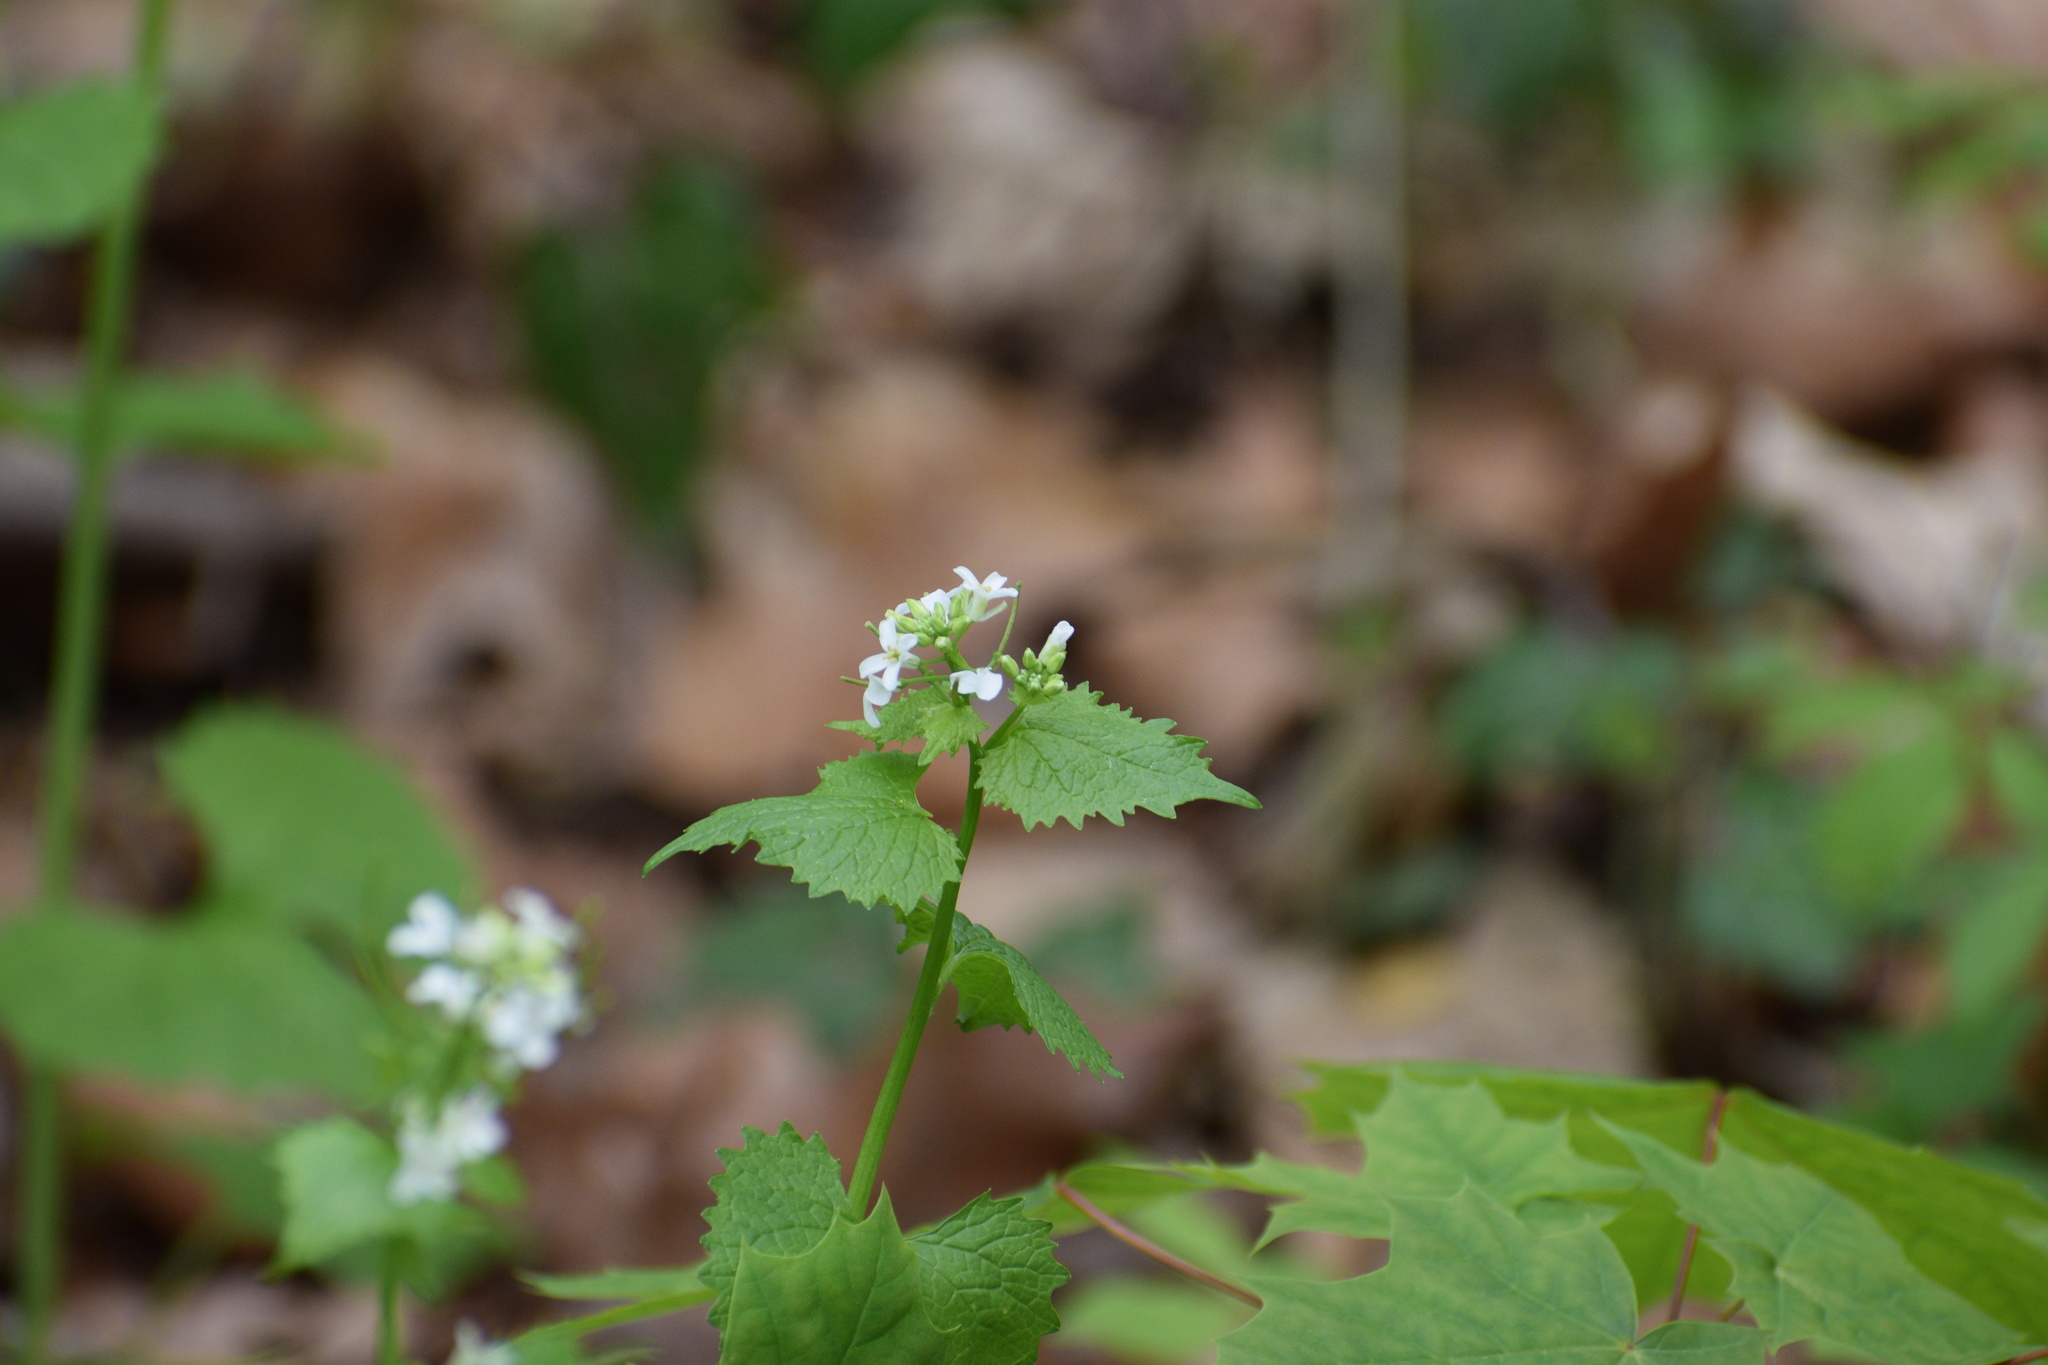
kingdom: Plantae
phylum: Tracheophyta
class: Magnoliopsida
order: Brassicales
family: Brassicaceae
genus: Alliaria
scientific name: Alliaria petiolata
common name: Garlic mustard
